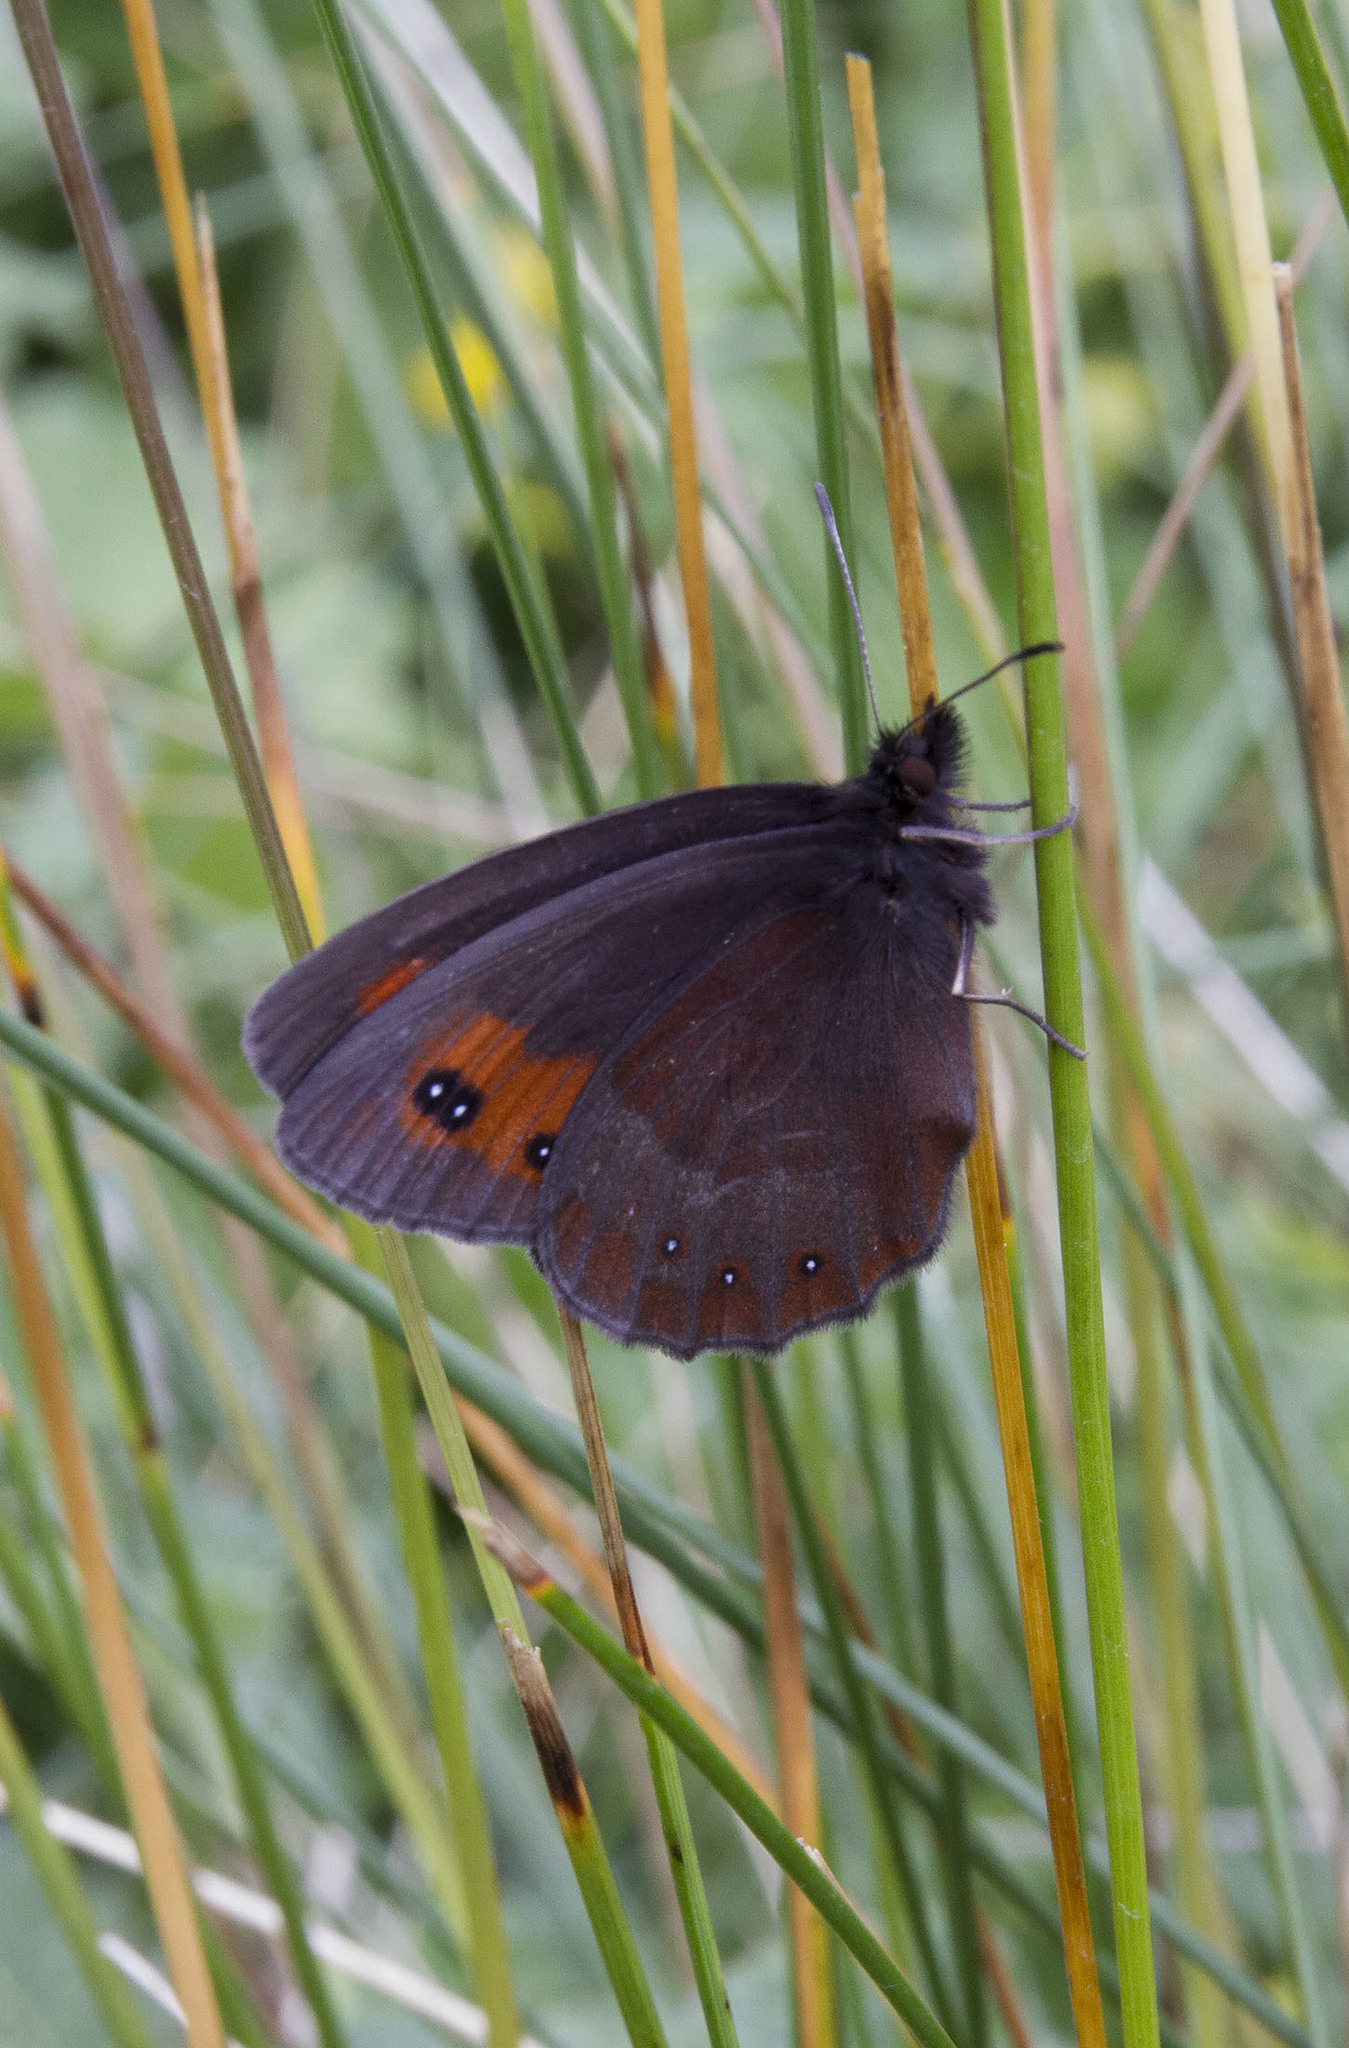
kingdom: Animalia
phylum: Arthropoda
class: Insecta
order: Lepidoptera
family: Nymphalidae
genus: Erebia
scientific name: Erebia aethiops
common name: Scotch argus
